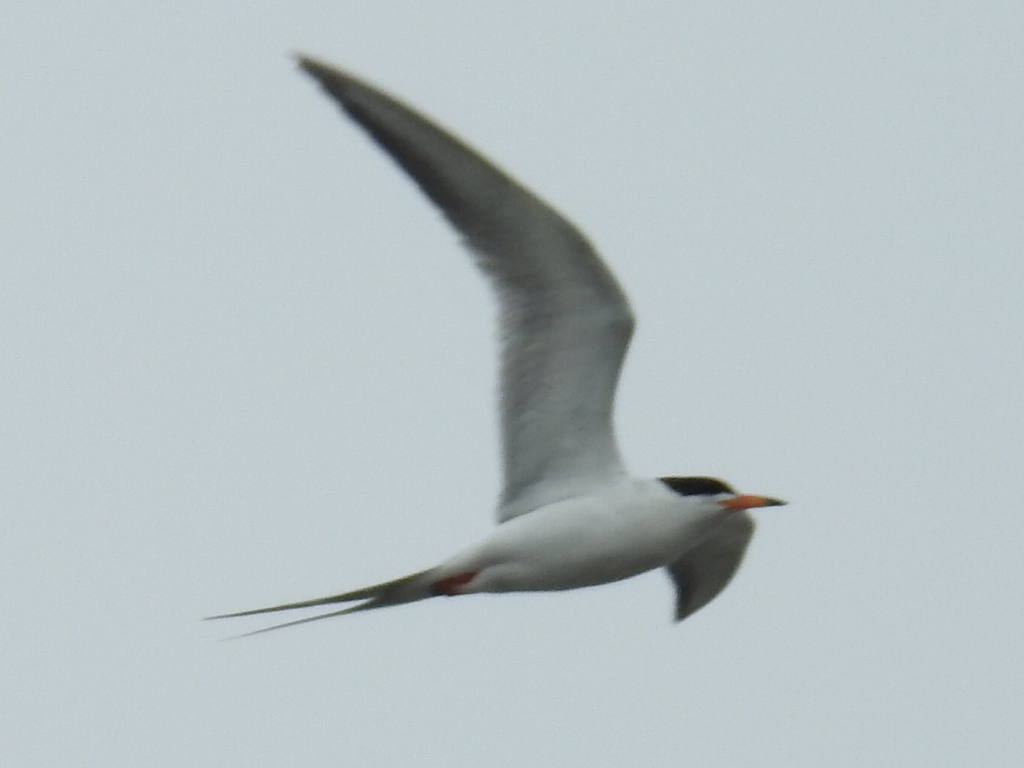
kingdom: Animalia
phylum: Chordata
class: Aves
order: Charadriiformes
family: Laridae
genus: Sterna
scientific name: Sterna forsteri
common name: Forster's tern
